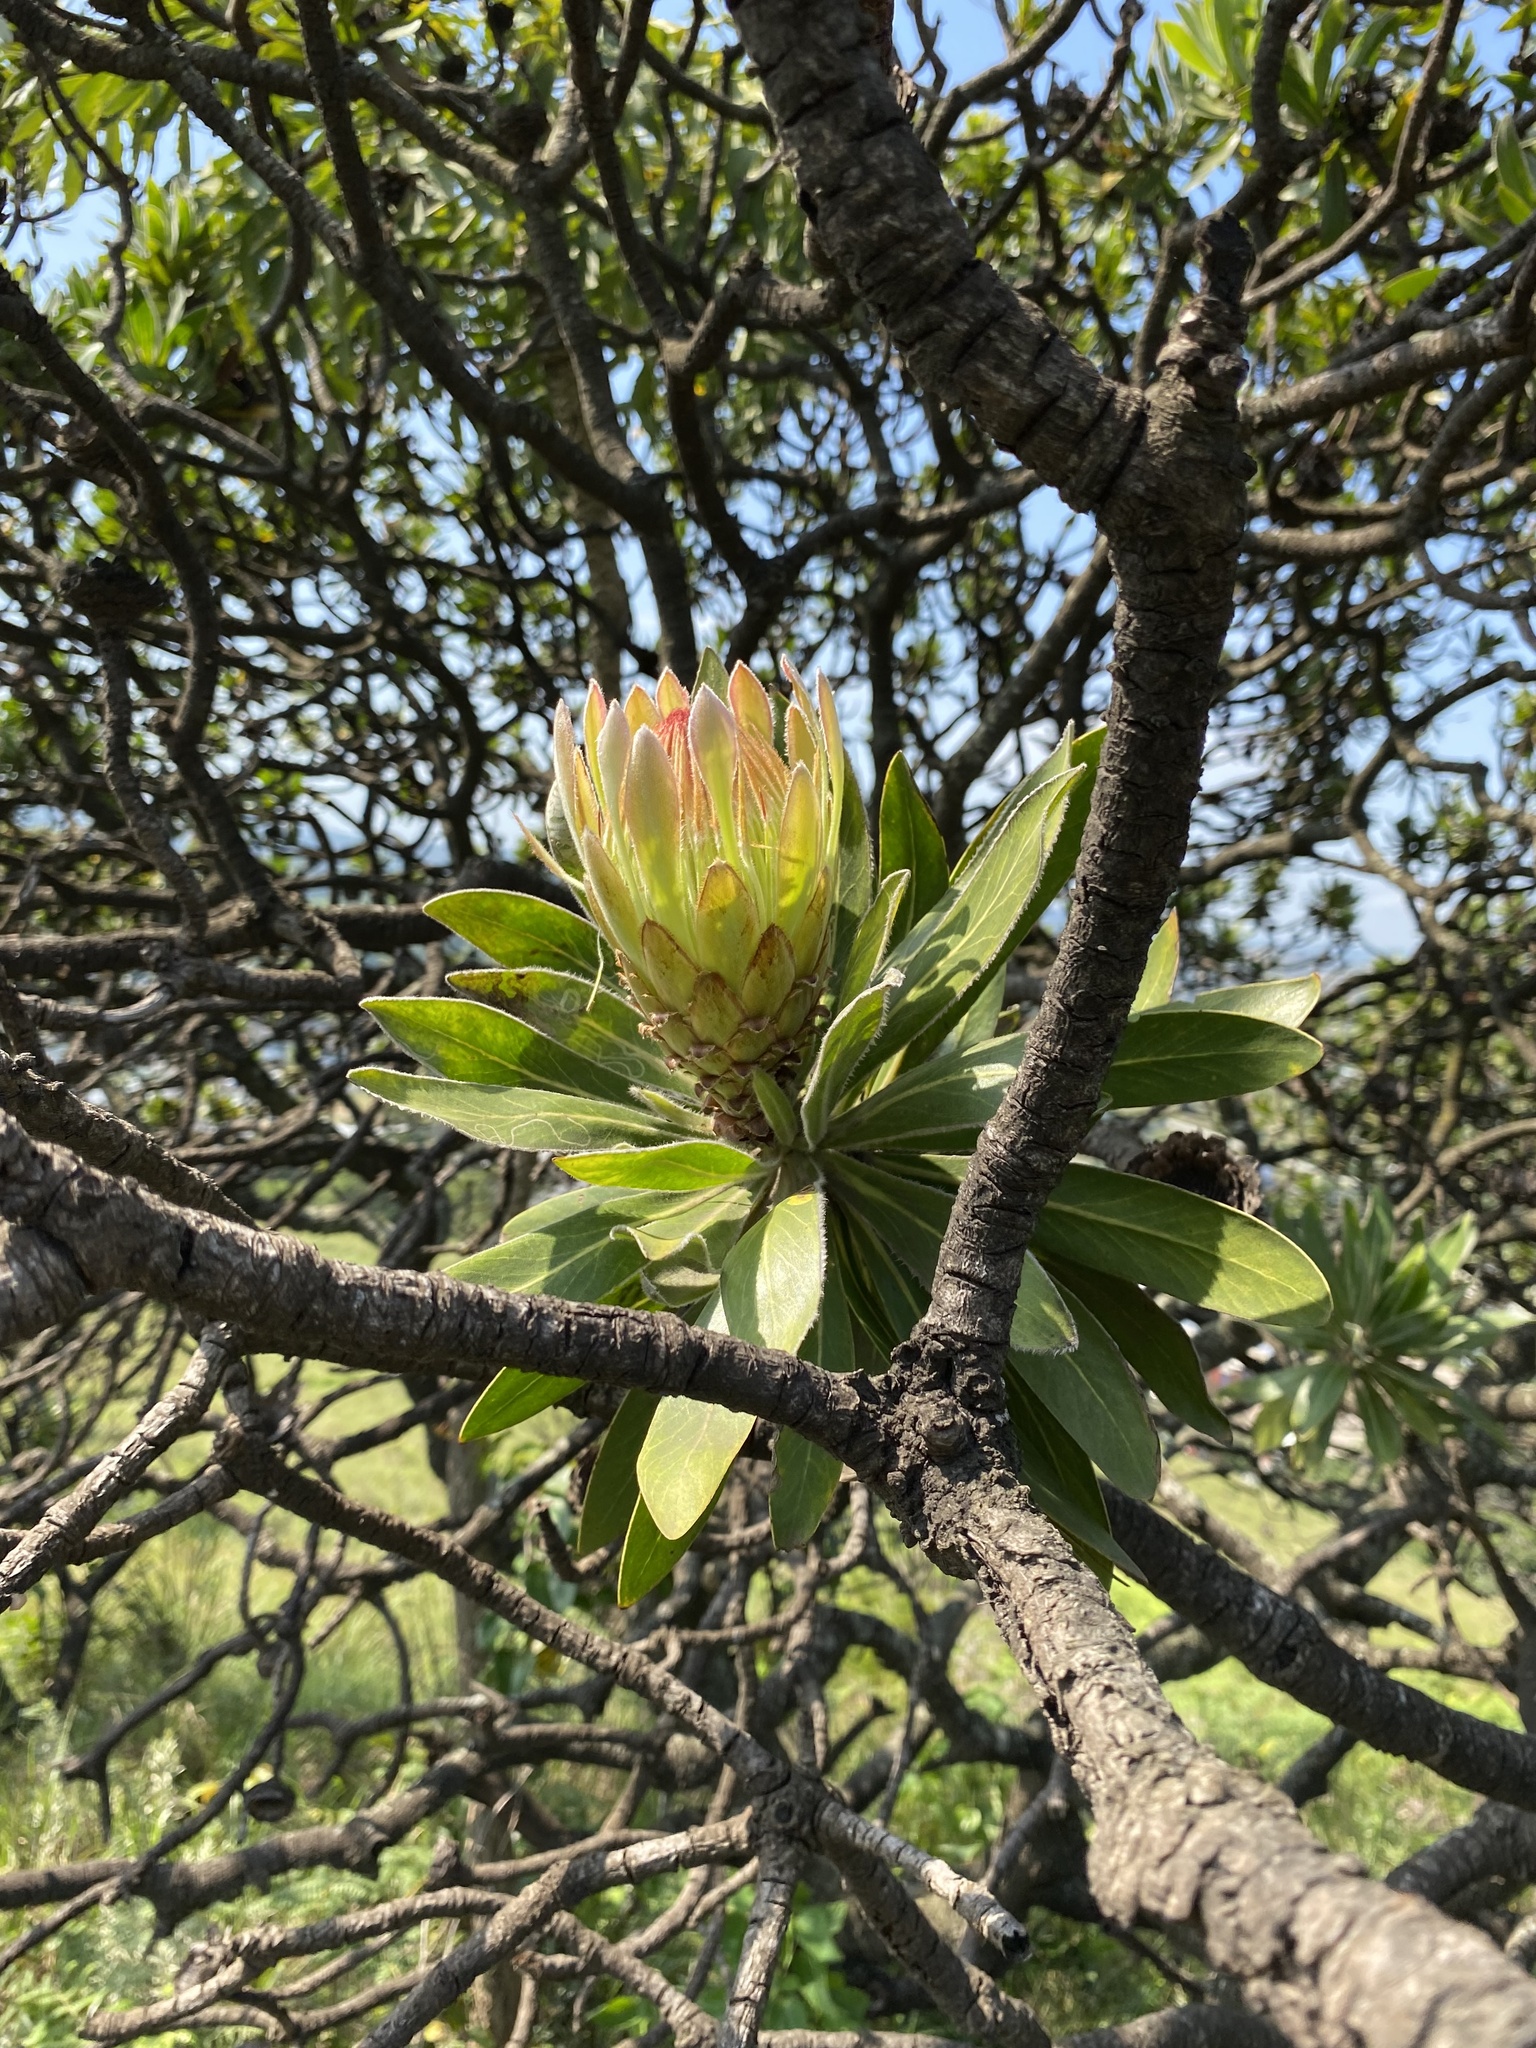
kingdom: Plantae
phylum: Tracheophyta
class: Magnoliopsida
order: Proteales
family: Proteaceae
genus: Protea
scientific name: Protea roupelliae
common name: Silver sugarbush
